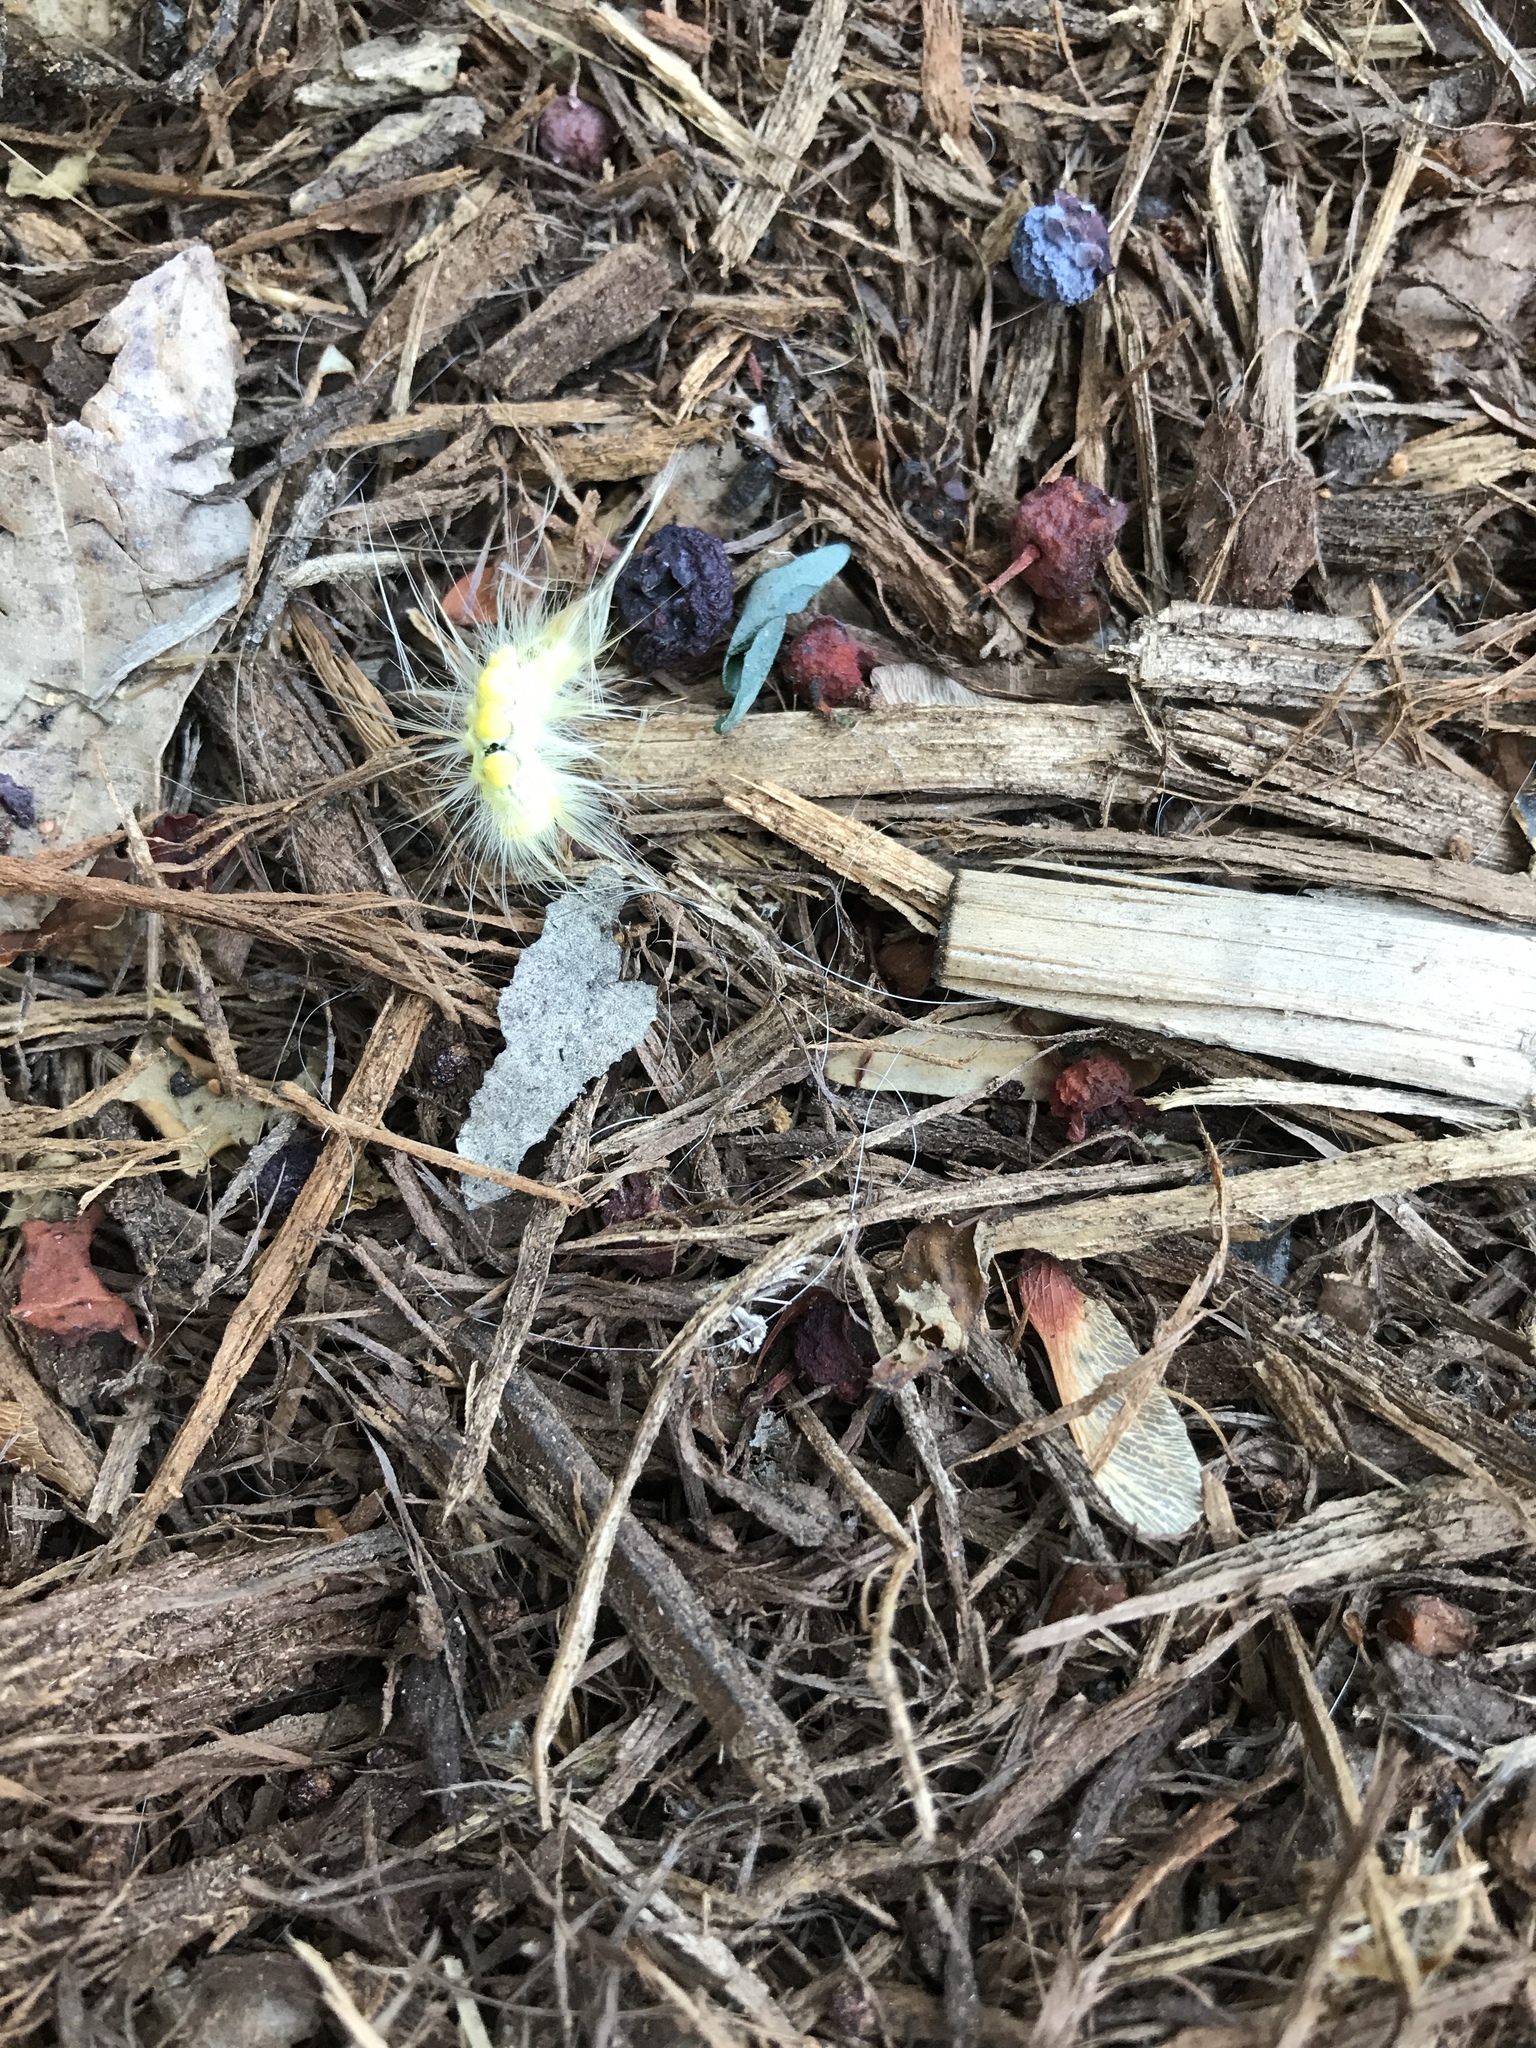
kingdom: Animalia
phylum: Arthropoda
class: Insecta
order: Lepidoptera
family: Erebidae
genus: Orgyia
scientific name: Orgyia definita
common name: Definite tussock moth
